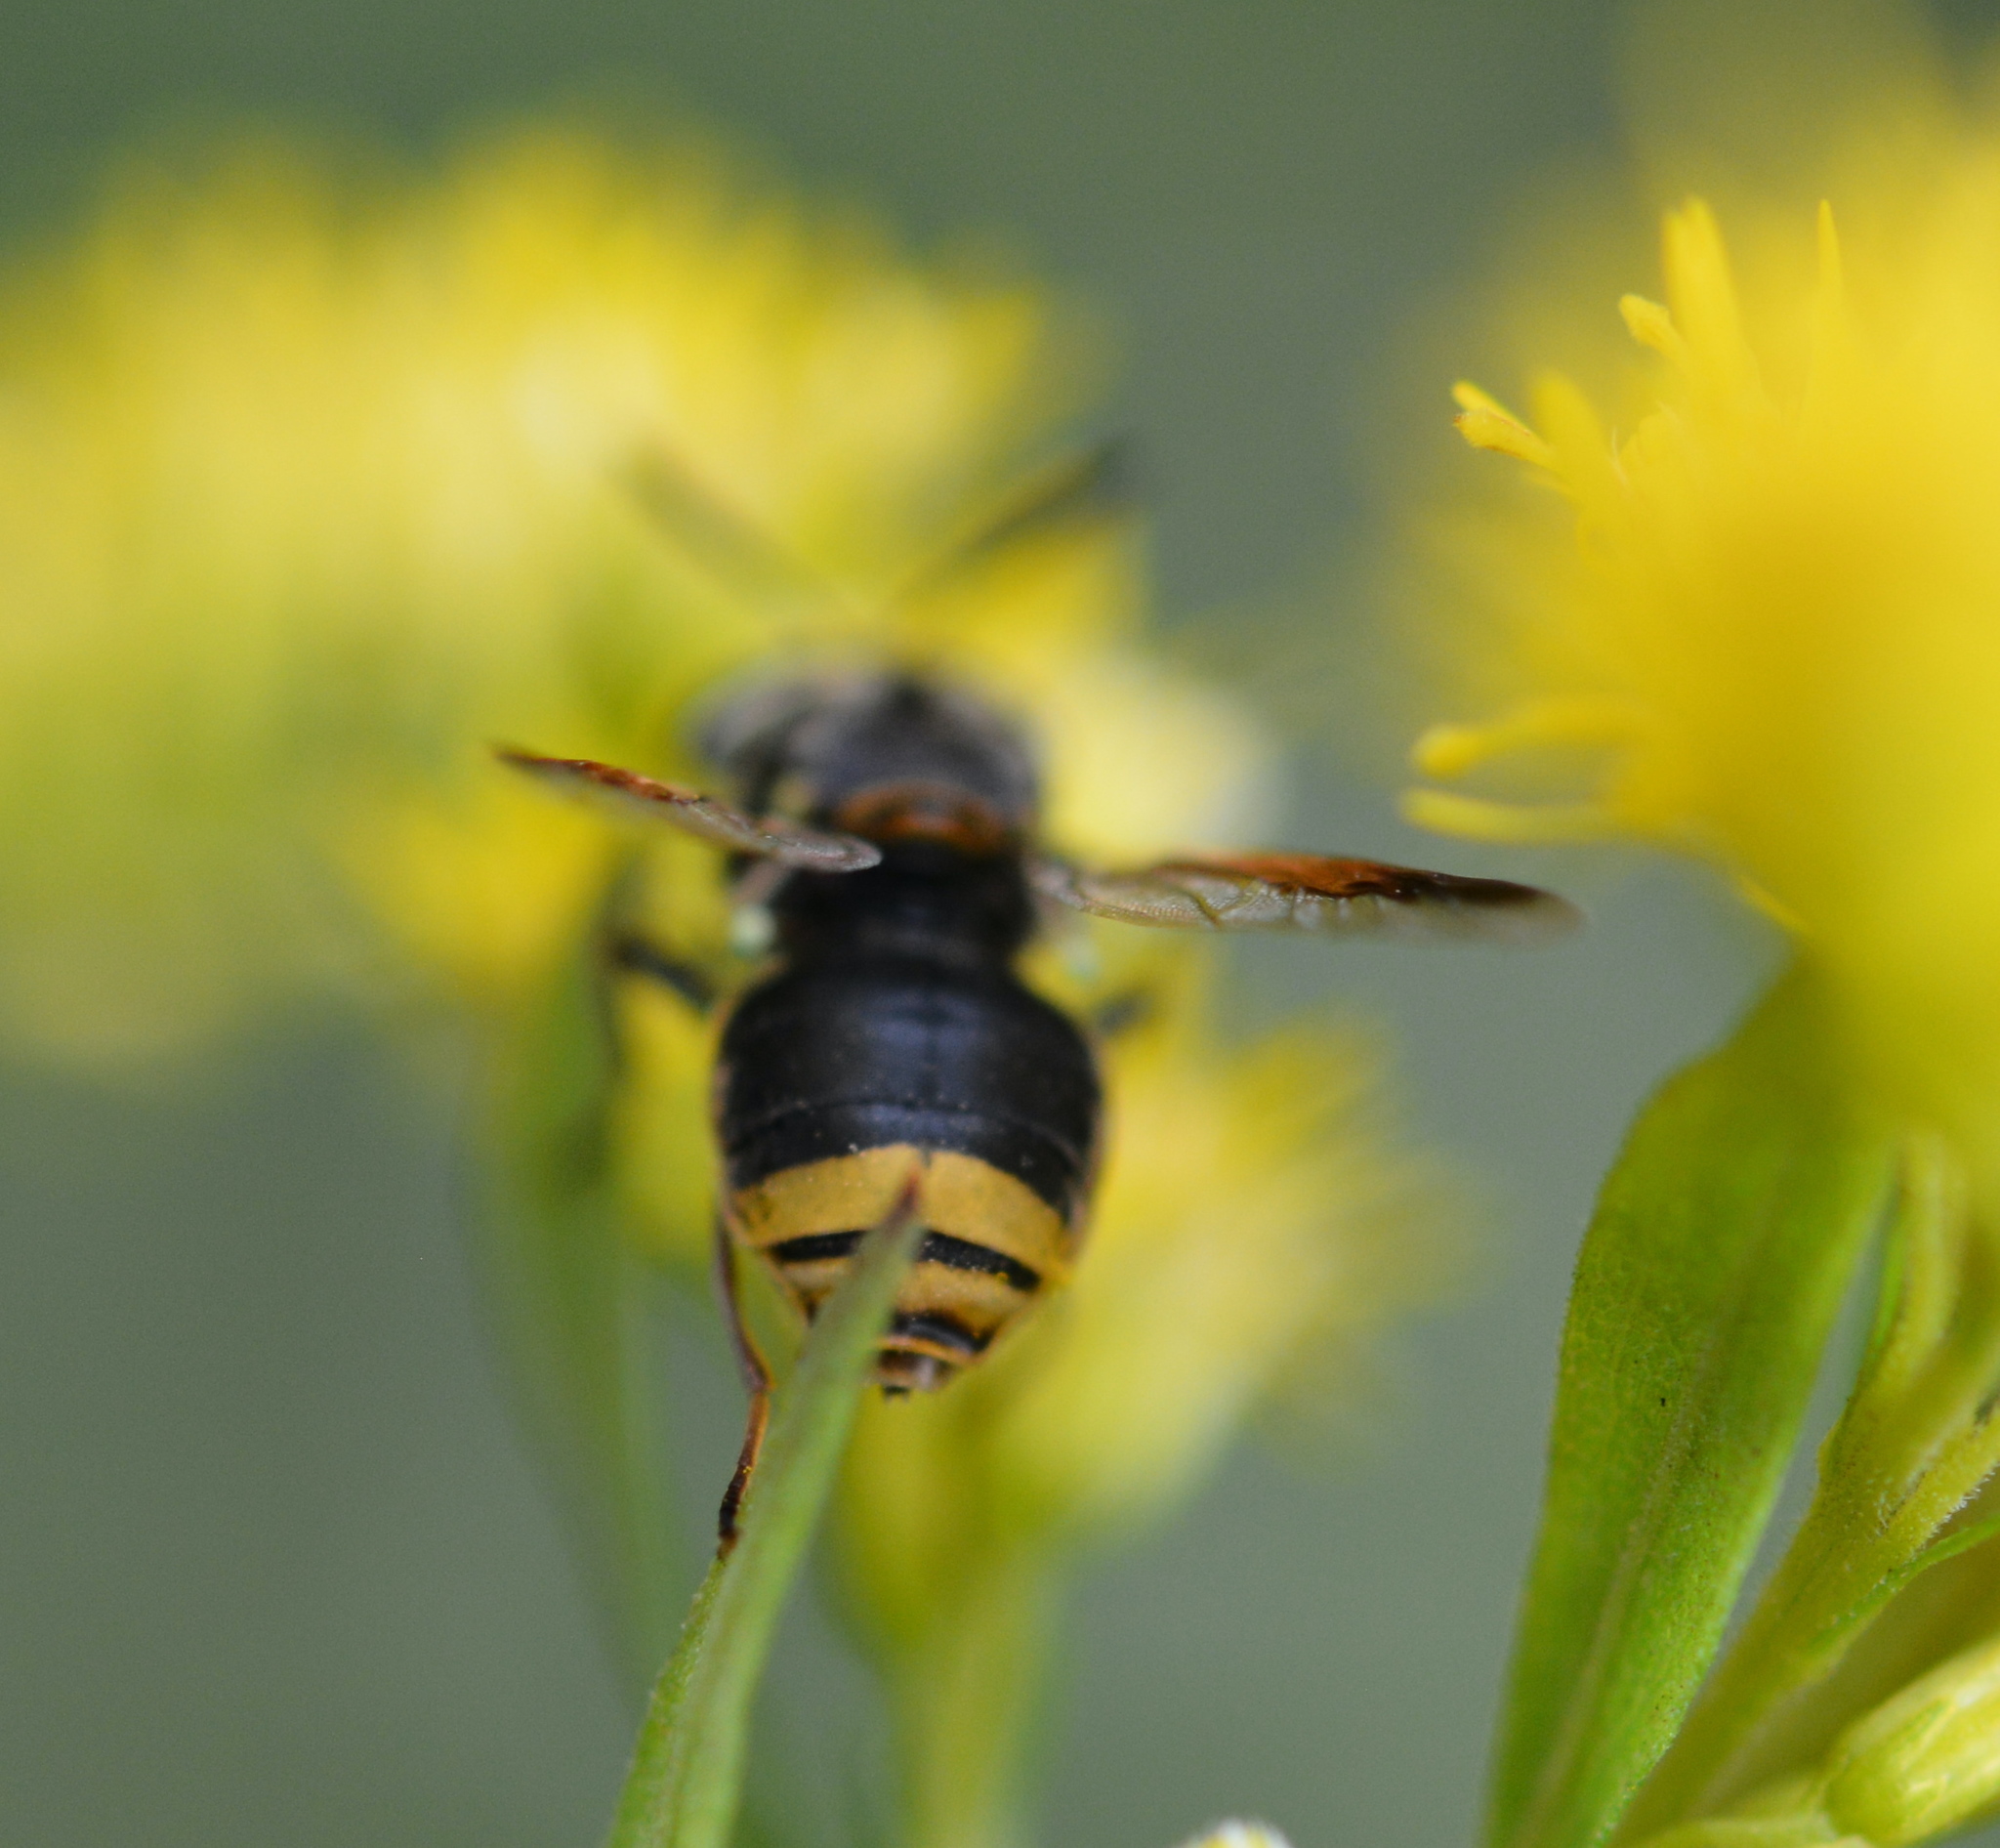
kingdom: Animalia
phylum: Arthropoda
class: Insecta
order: Diptera
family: Stratiomyidae
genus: Hoplitimyia
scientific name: Hoplitimyia mutabilis
